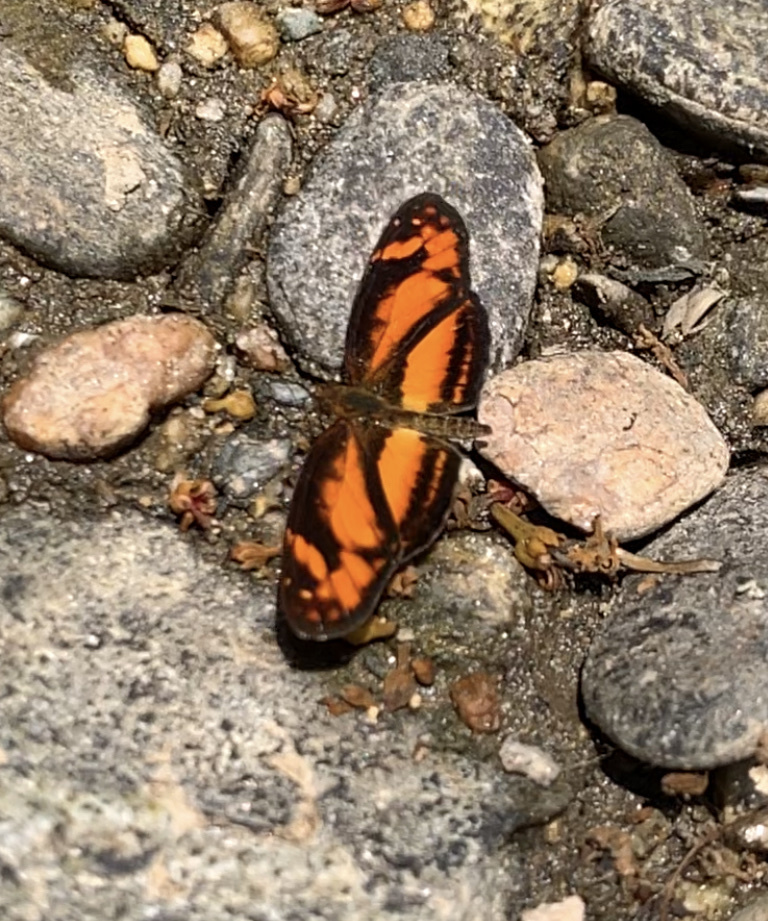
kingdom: Animalia
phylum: Arthropoda
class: Insecta
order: Lepidoptera
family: Nymphalidae
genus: Castilia
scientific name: Castilia eranites
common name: Smudged crescent
